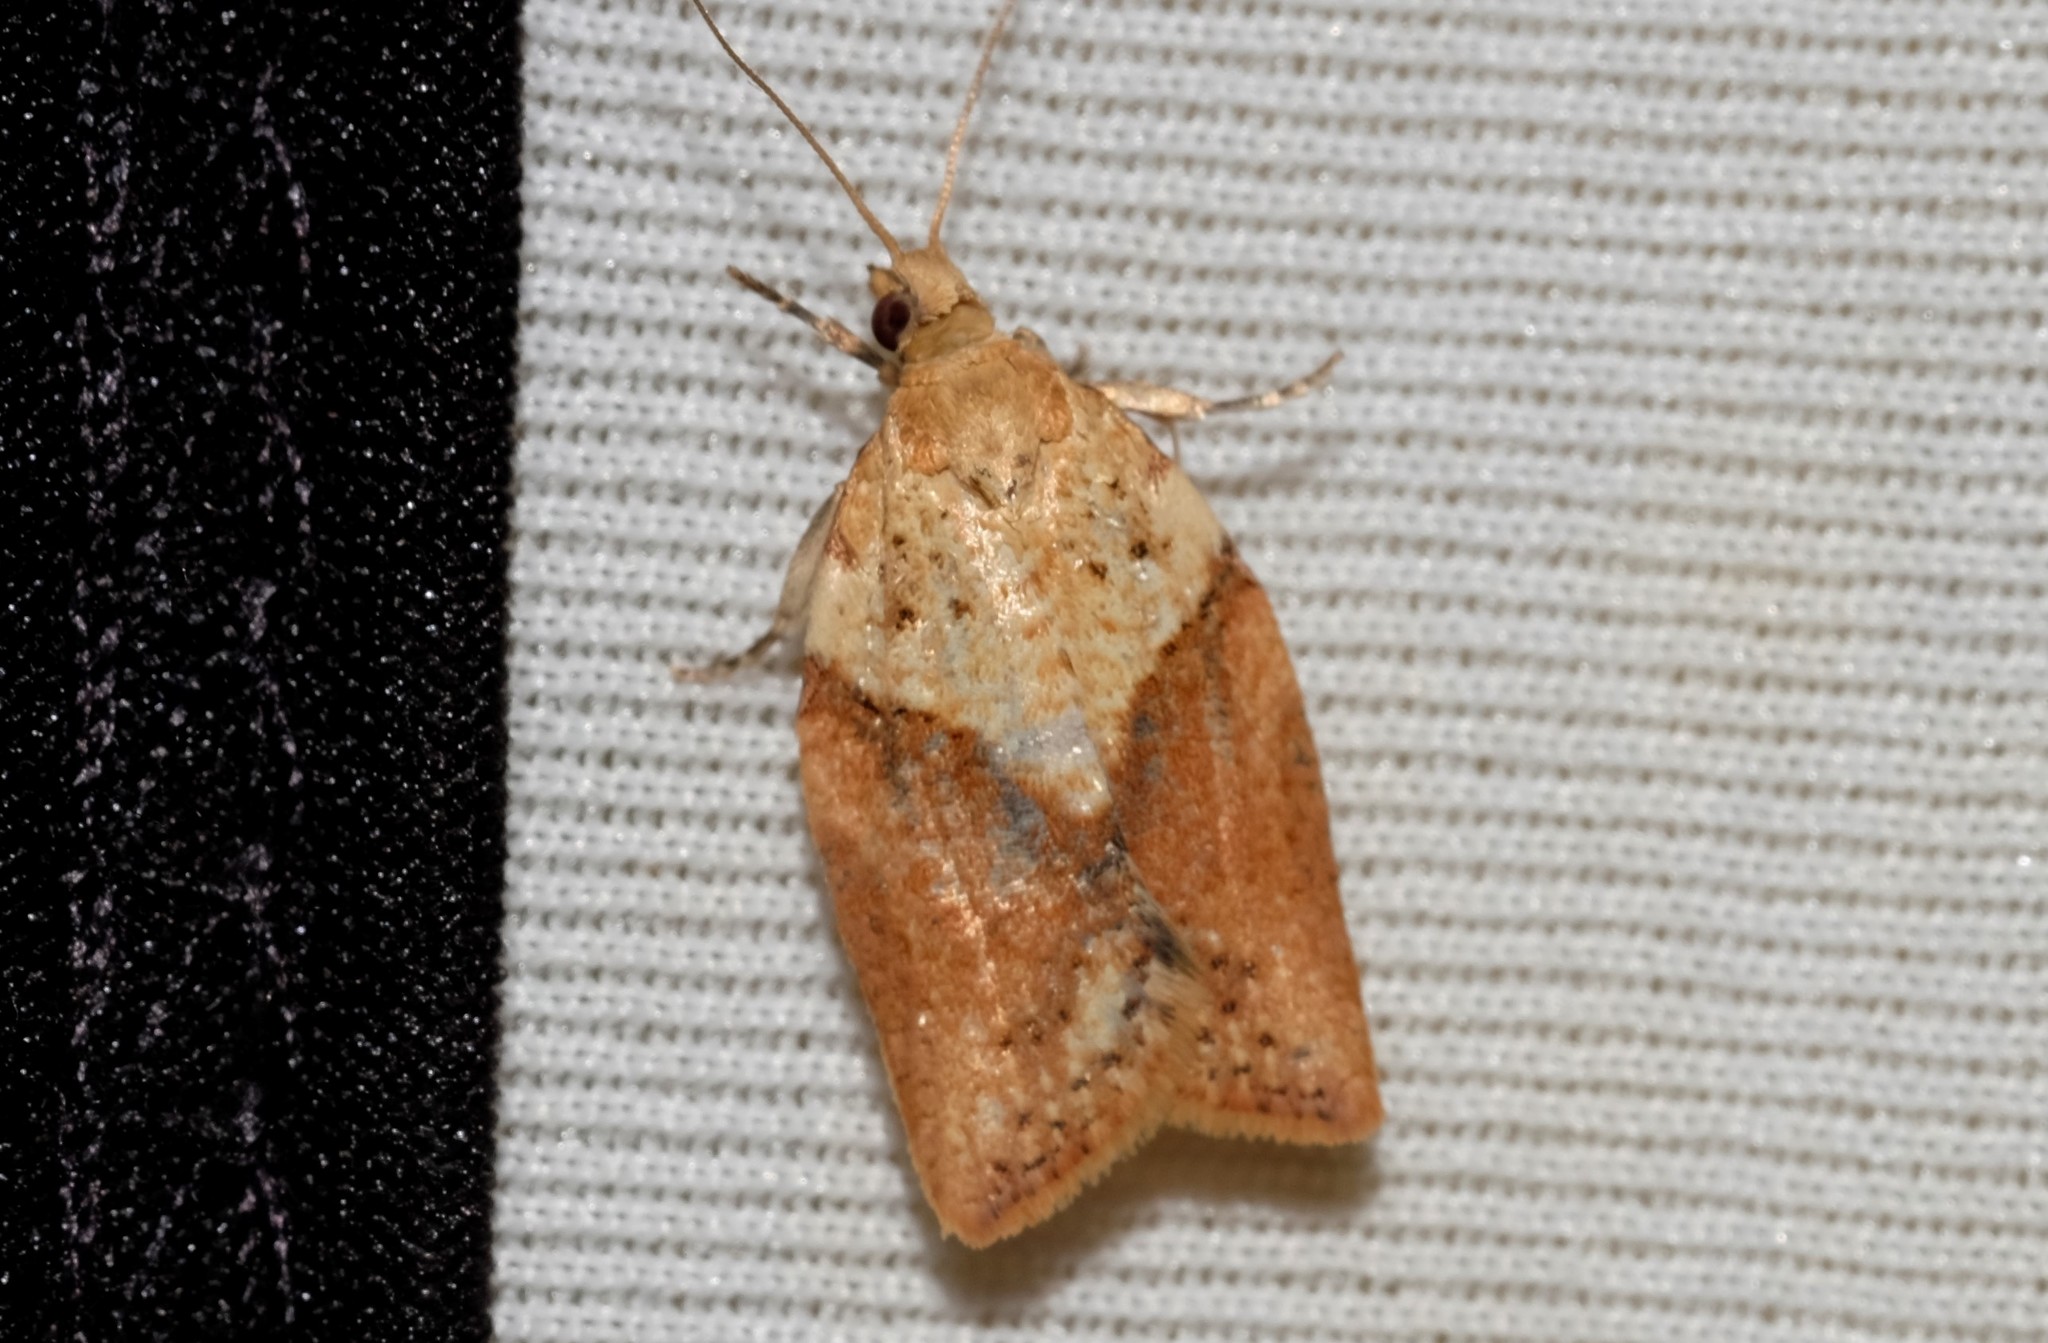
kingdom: Animalia
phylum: Arthropoda
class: Insecta
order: Lepidoptera
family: Tortricidae
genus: Epiphyas
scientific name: Epiphyas postvittana
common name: Light brown apple moth
